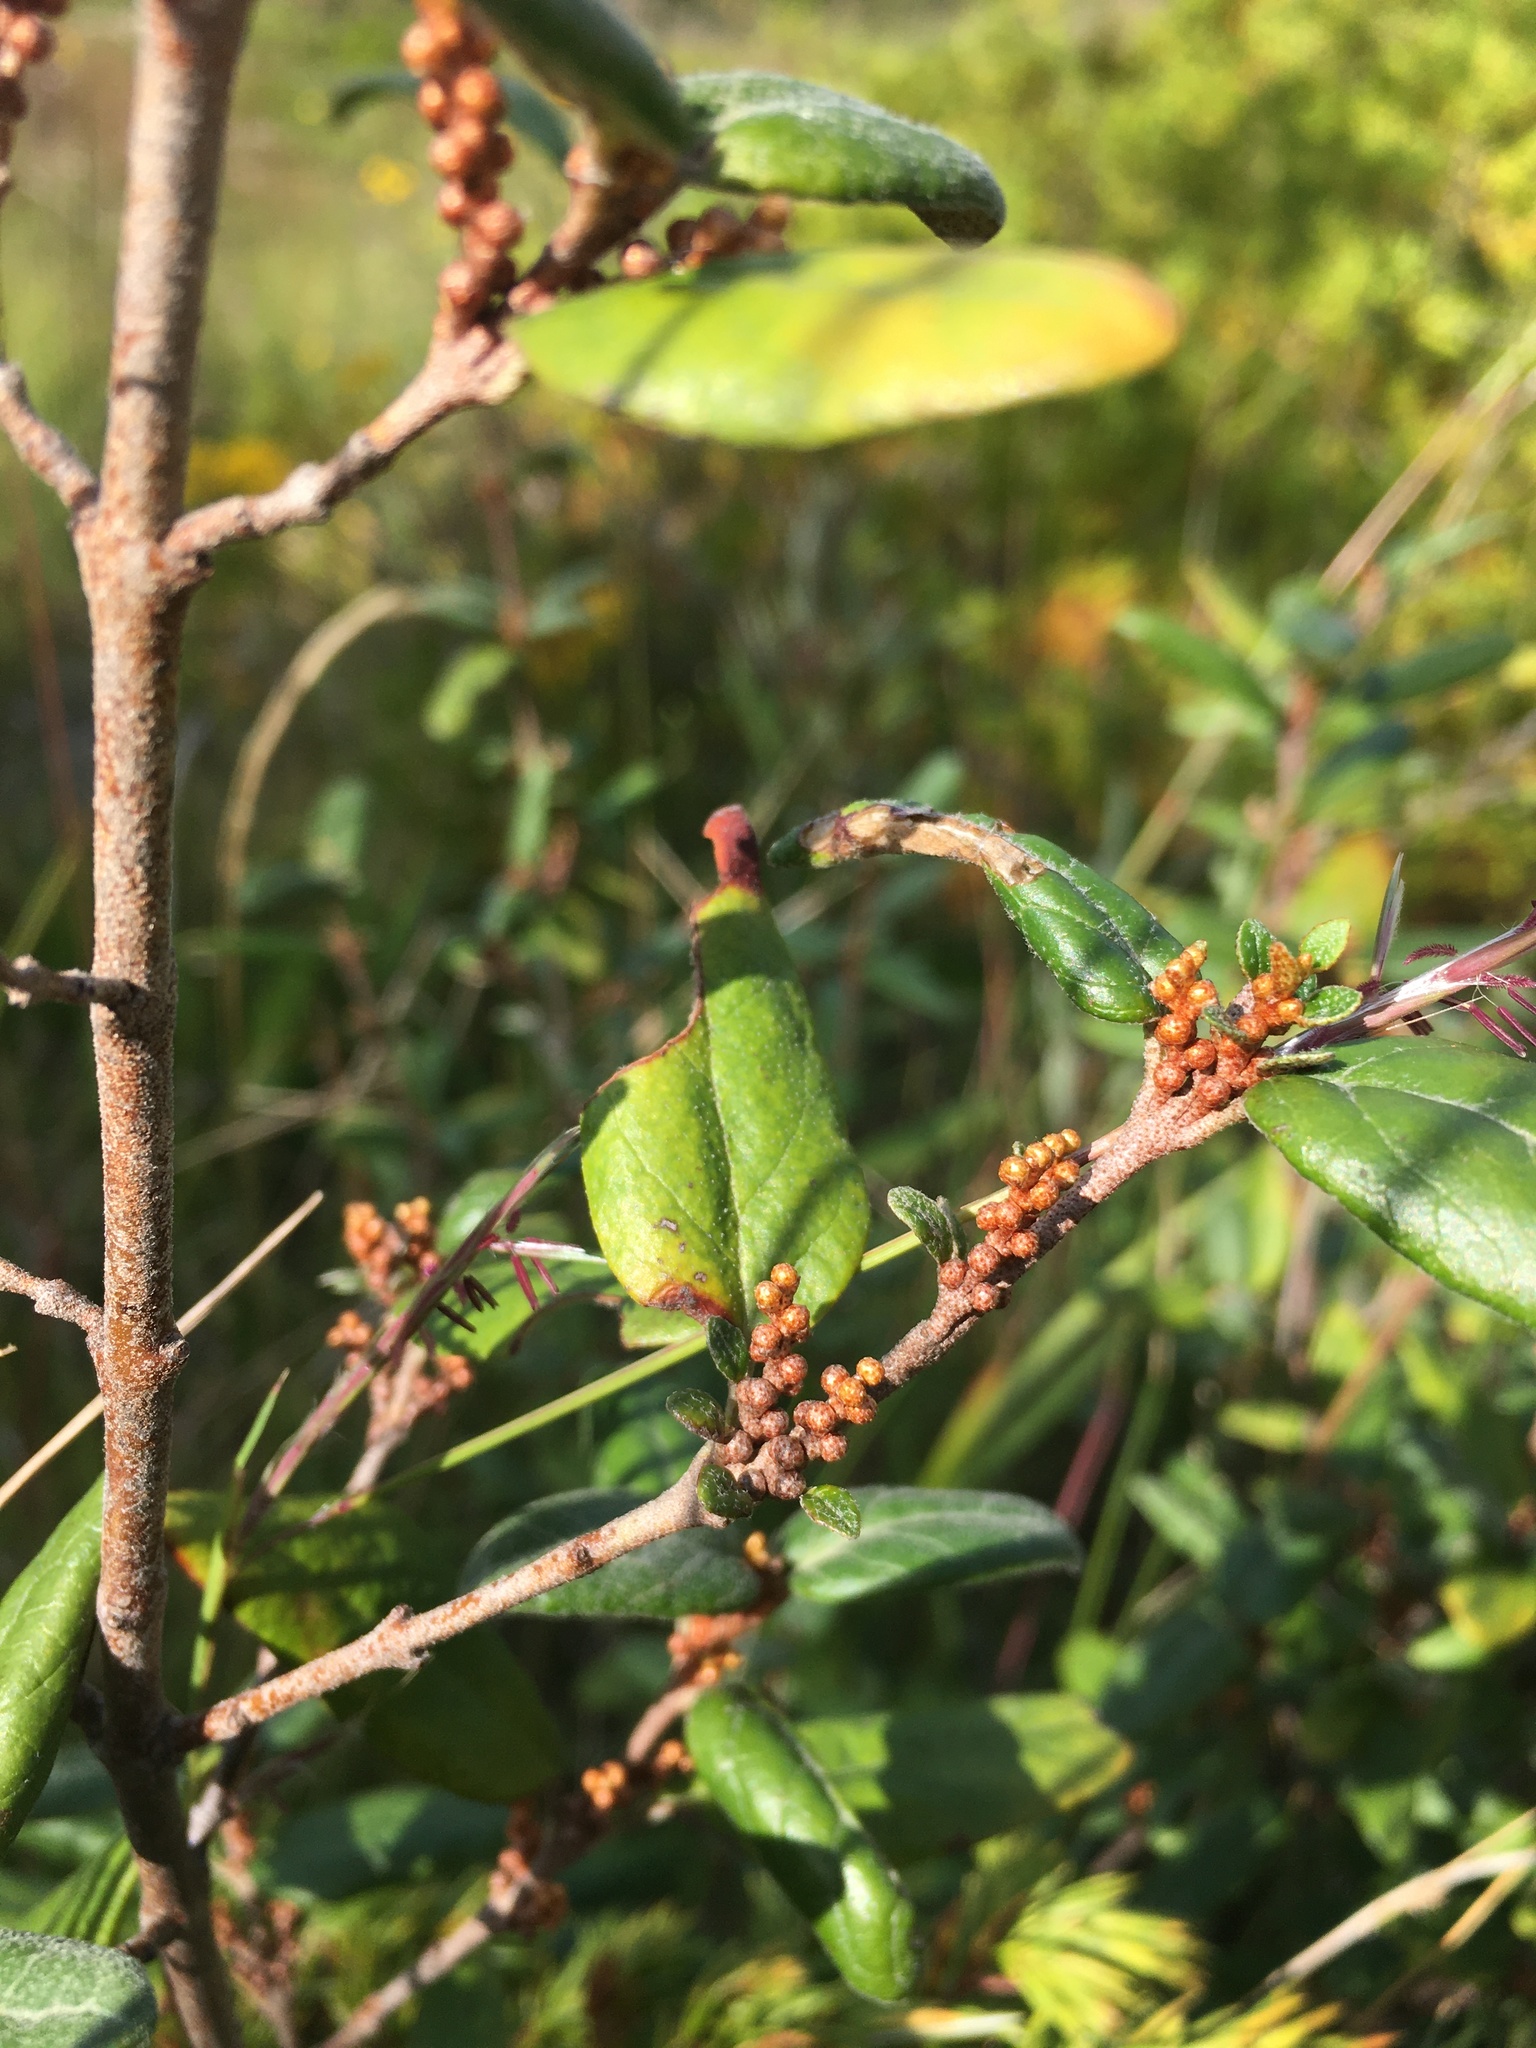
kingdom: Plantae
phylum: Tracheophyta
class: Magnoliopsida
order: Rosales
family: Elaeagnaceae
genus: Shepherdia
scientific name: Shepherdia canadensis
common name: Soapberry
